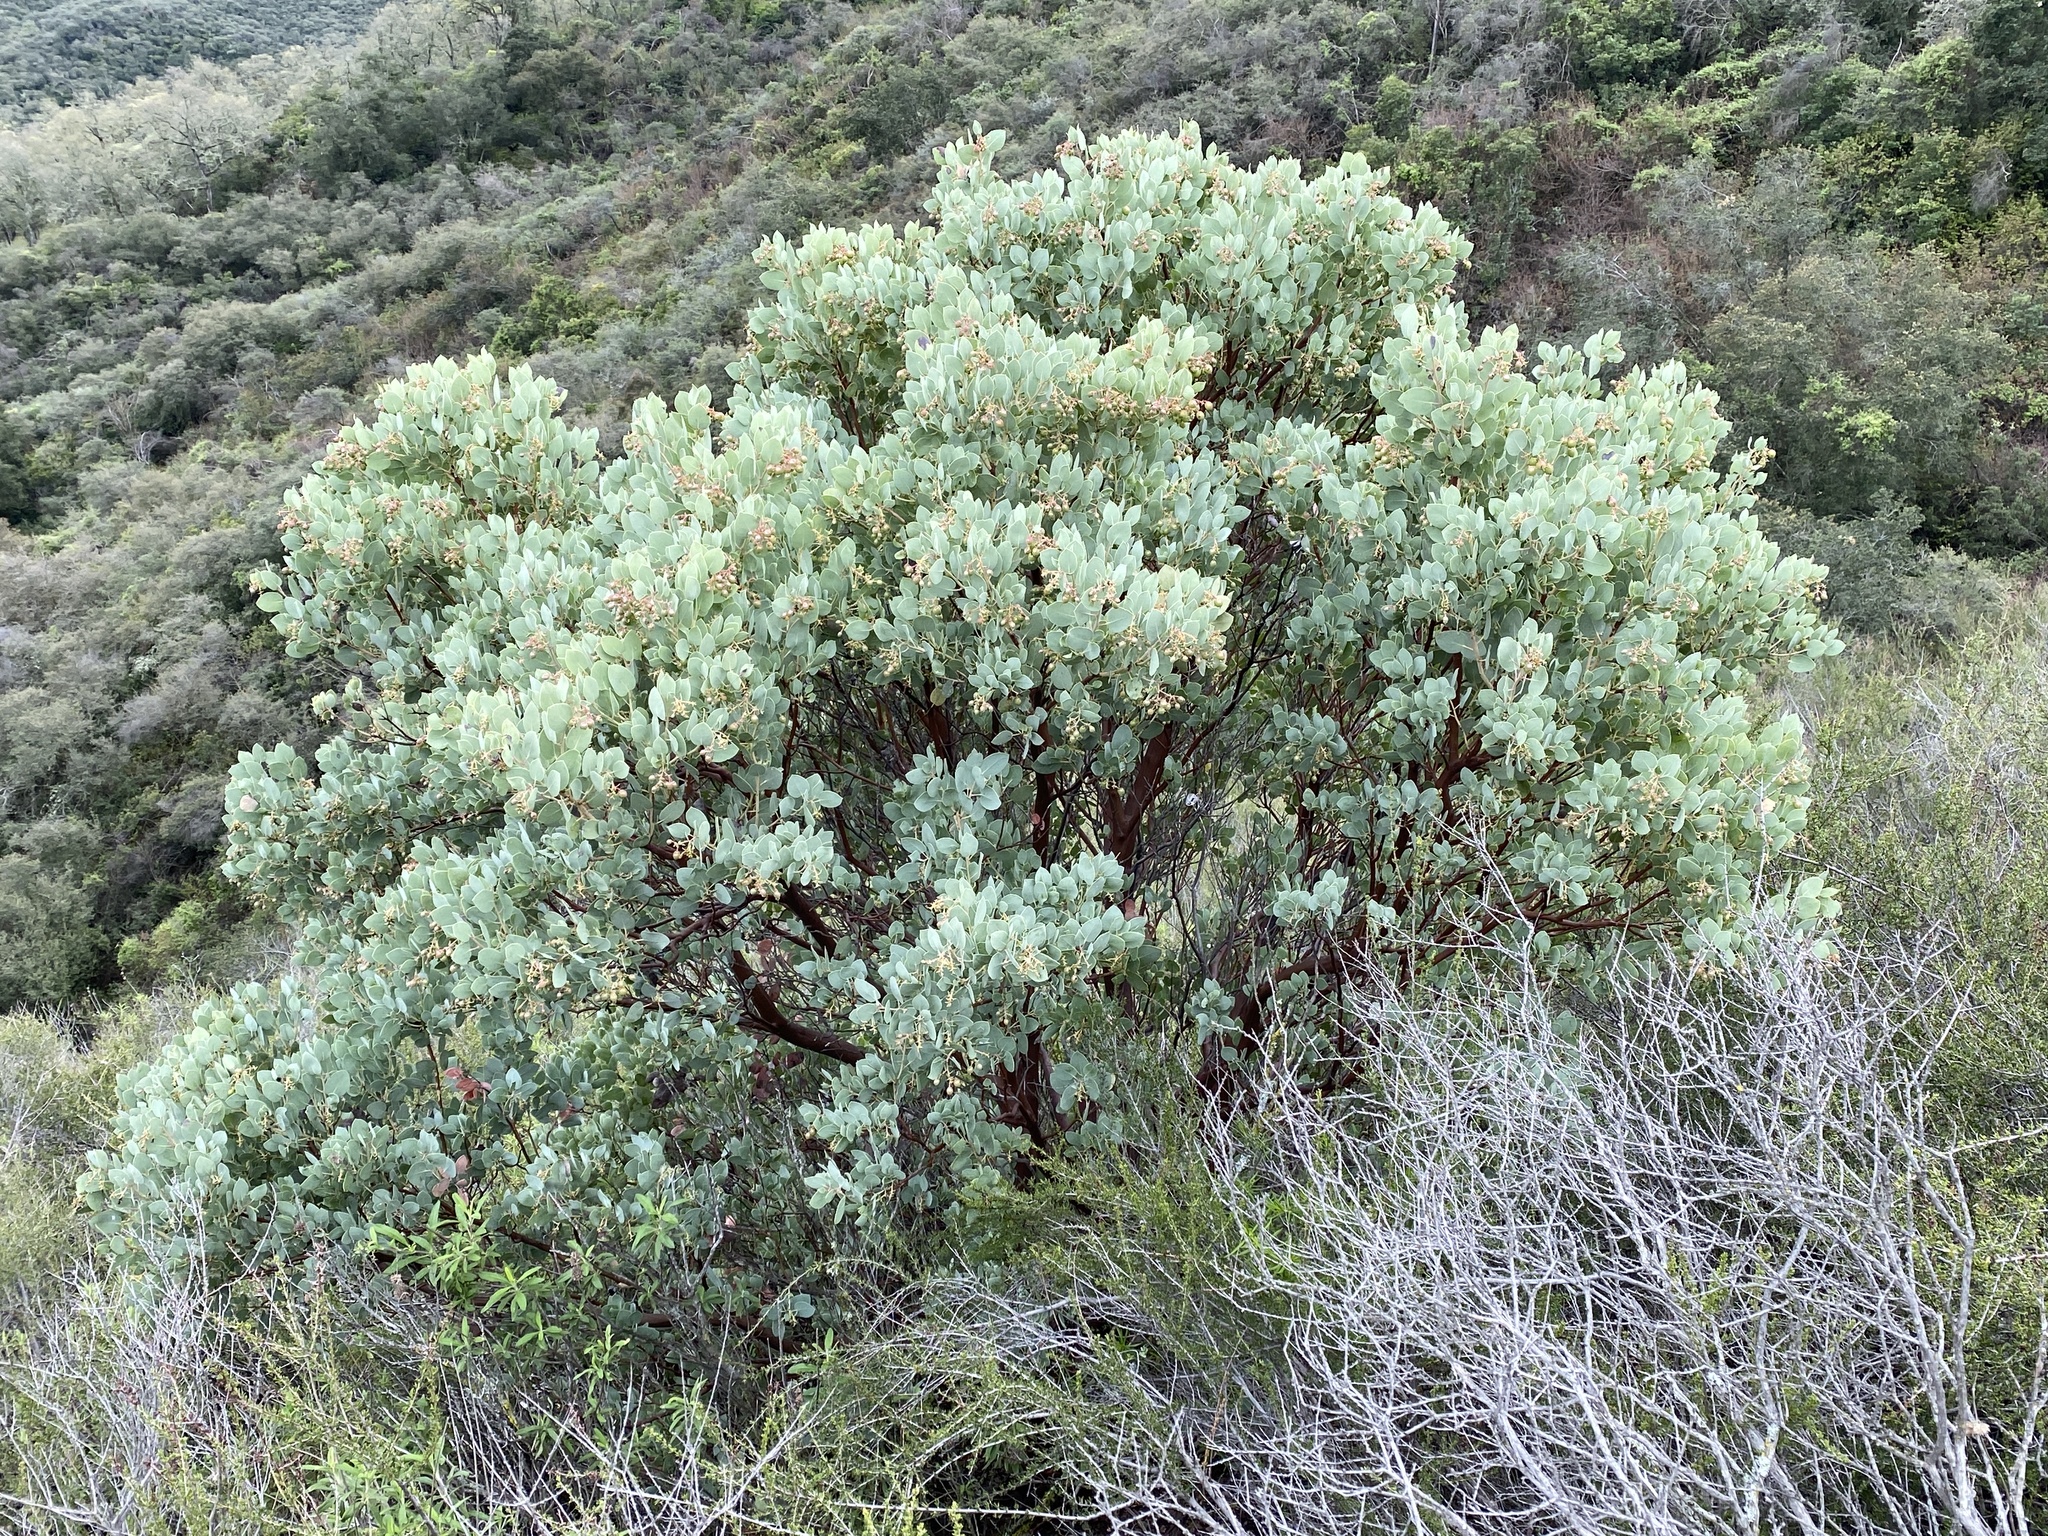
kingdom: Plantae
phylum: Tracheophyta
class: Magnoliopsida
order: Ericales
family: Ericaceae
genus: Arctostaphylos
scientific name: Arctostaphylos glauca
